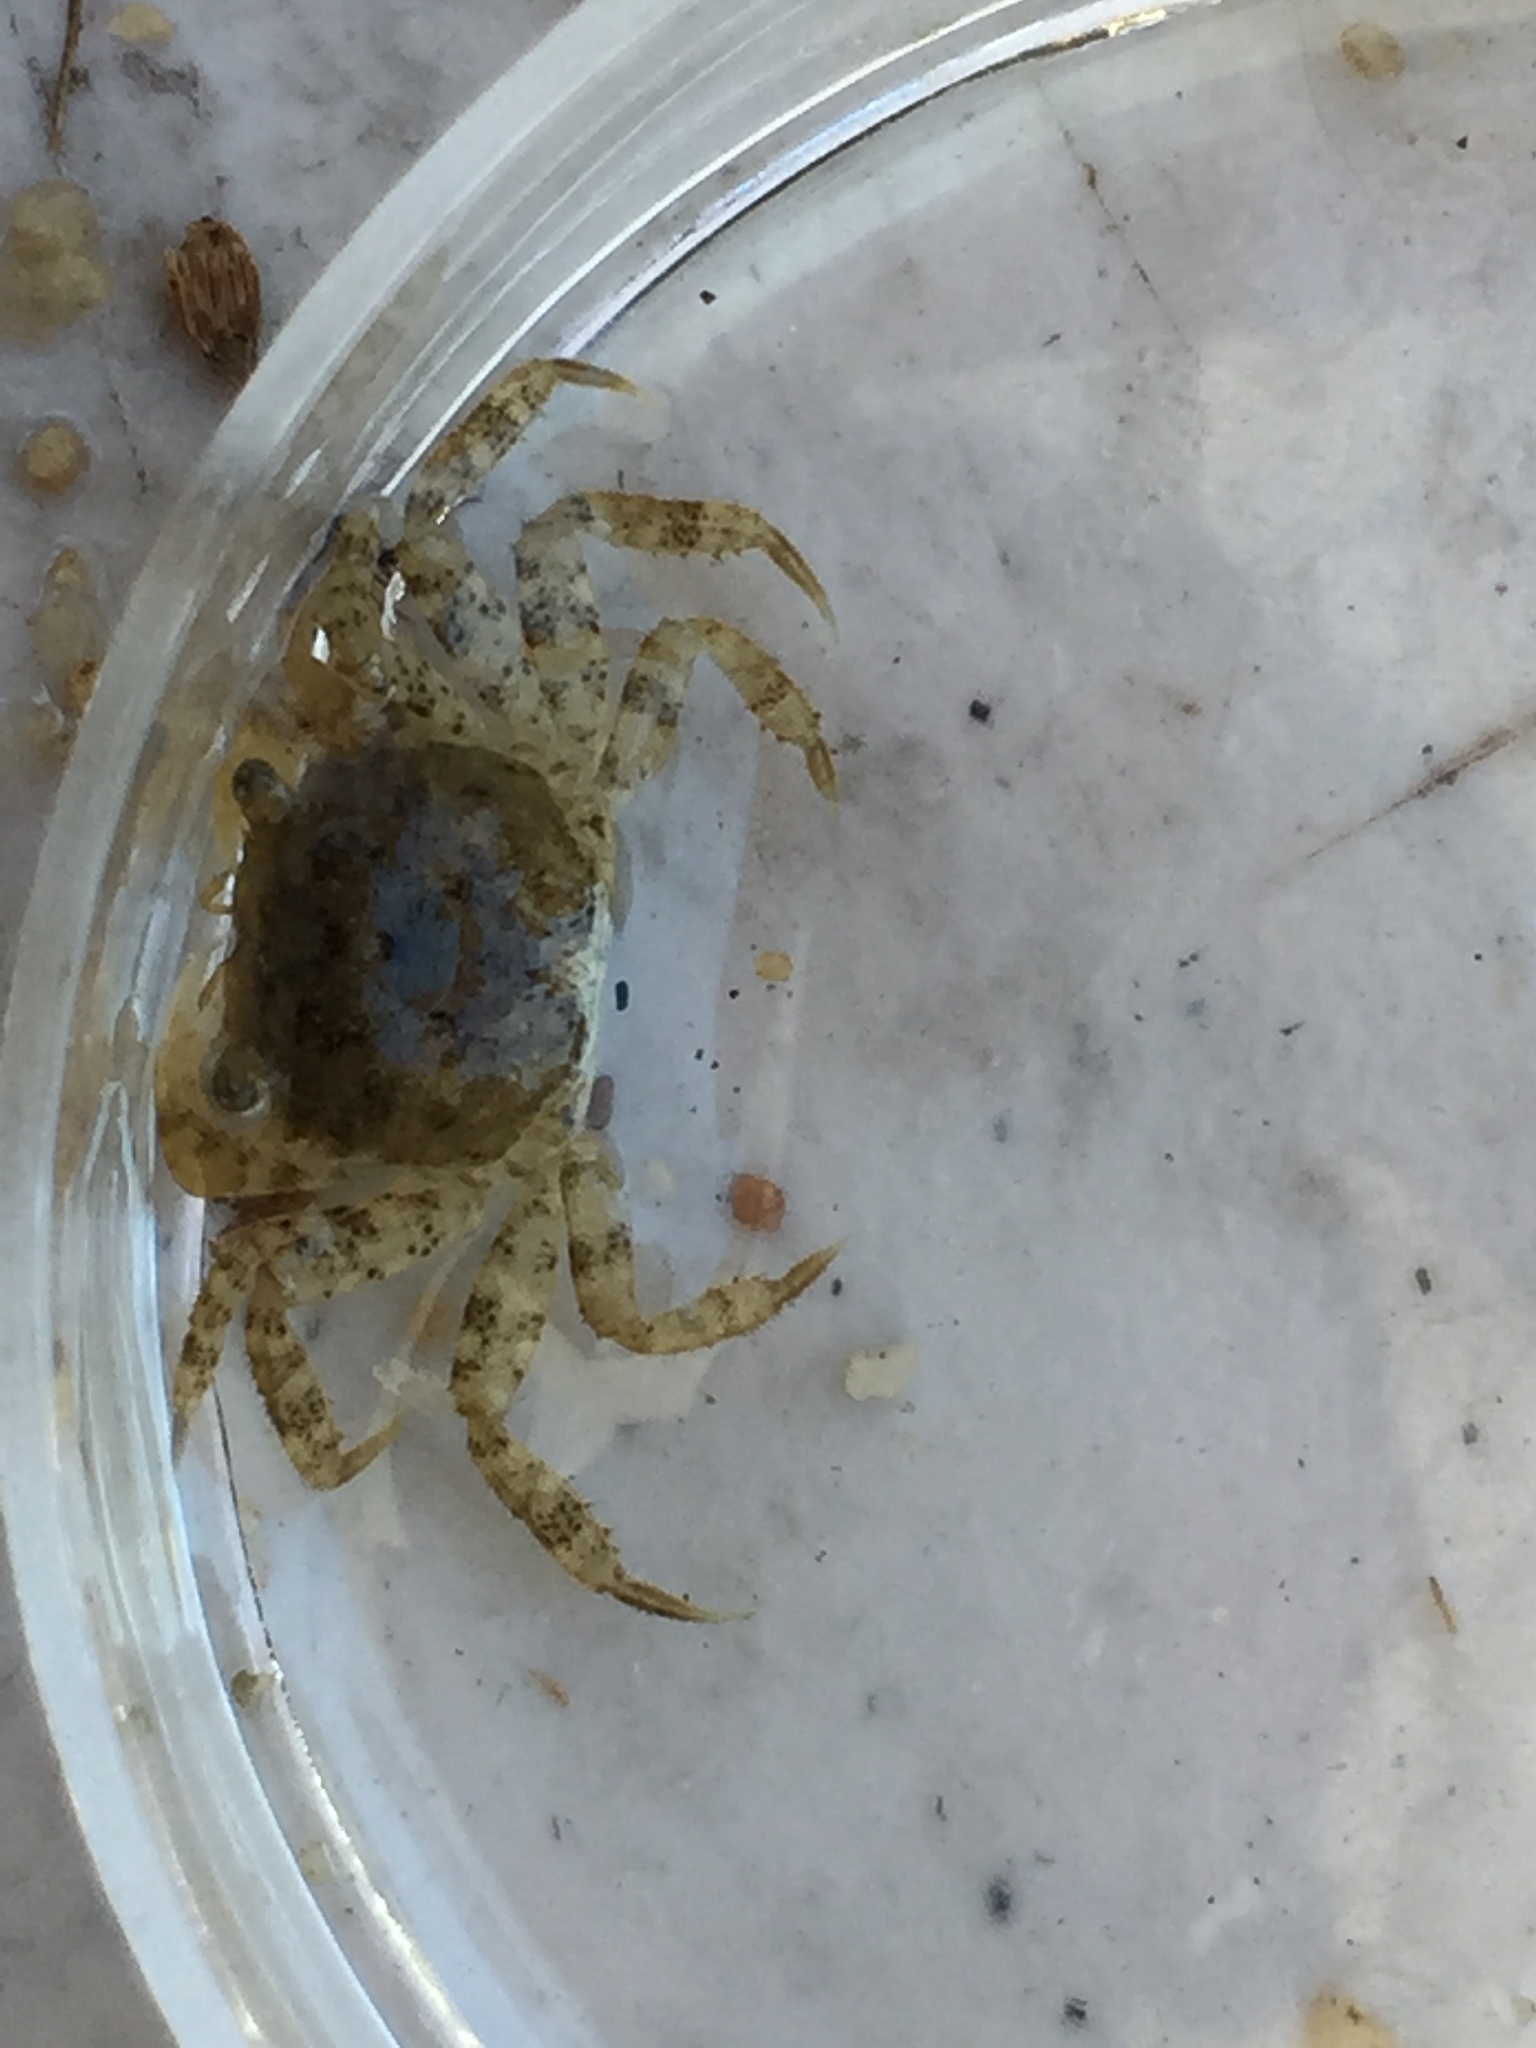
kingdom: Animalia
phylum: Arthropoda
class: Malacostraca
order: Decapoda
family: Varunidae
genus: Hemigrapsus
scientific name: Hemigrapsus oregonensis
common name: Yellow shore crab
